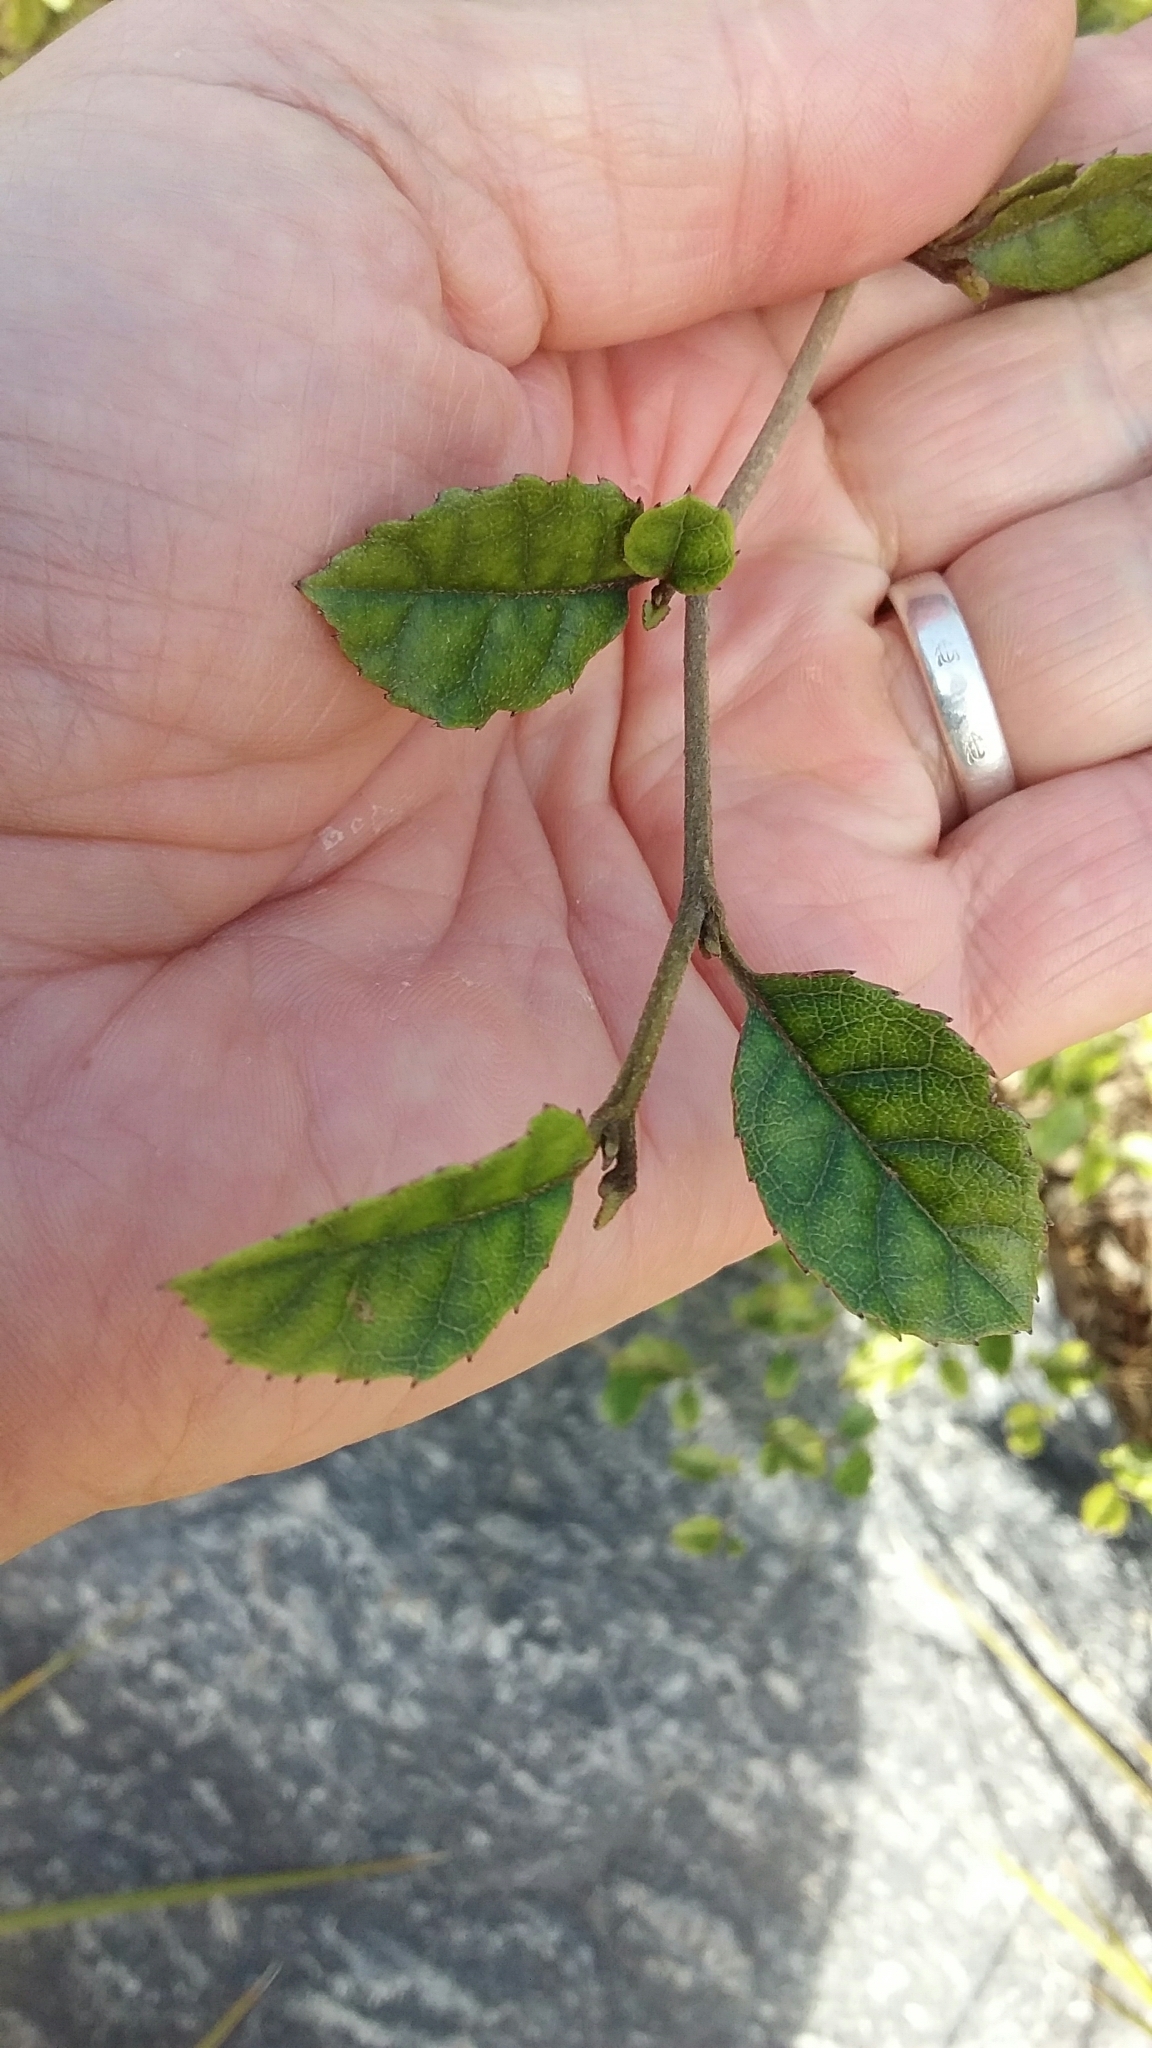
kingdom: Plantae
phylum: Tracheophyta
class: Magnoliopsida
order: Asterales
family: Rousseaceae
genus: Carpodetus
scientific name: Carpodetus serratus
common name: White mapau
